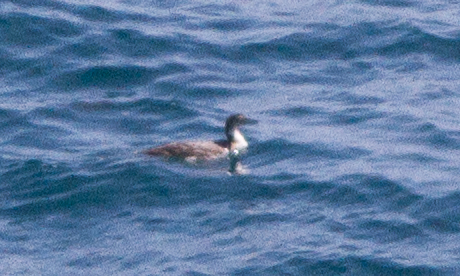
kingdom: Animalia
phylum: Chordata
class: Aves
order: Gaviiformes
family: Gaviidae
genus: Gavia
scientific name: Gavia immer
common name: Common loon
